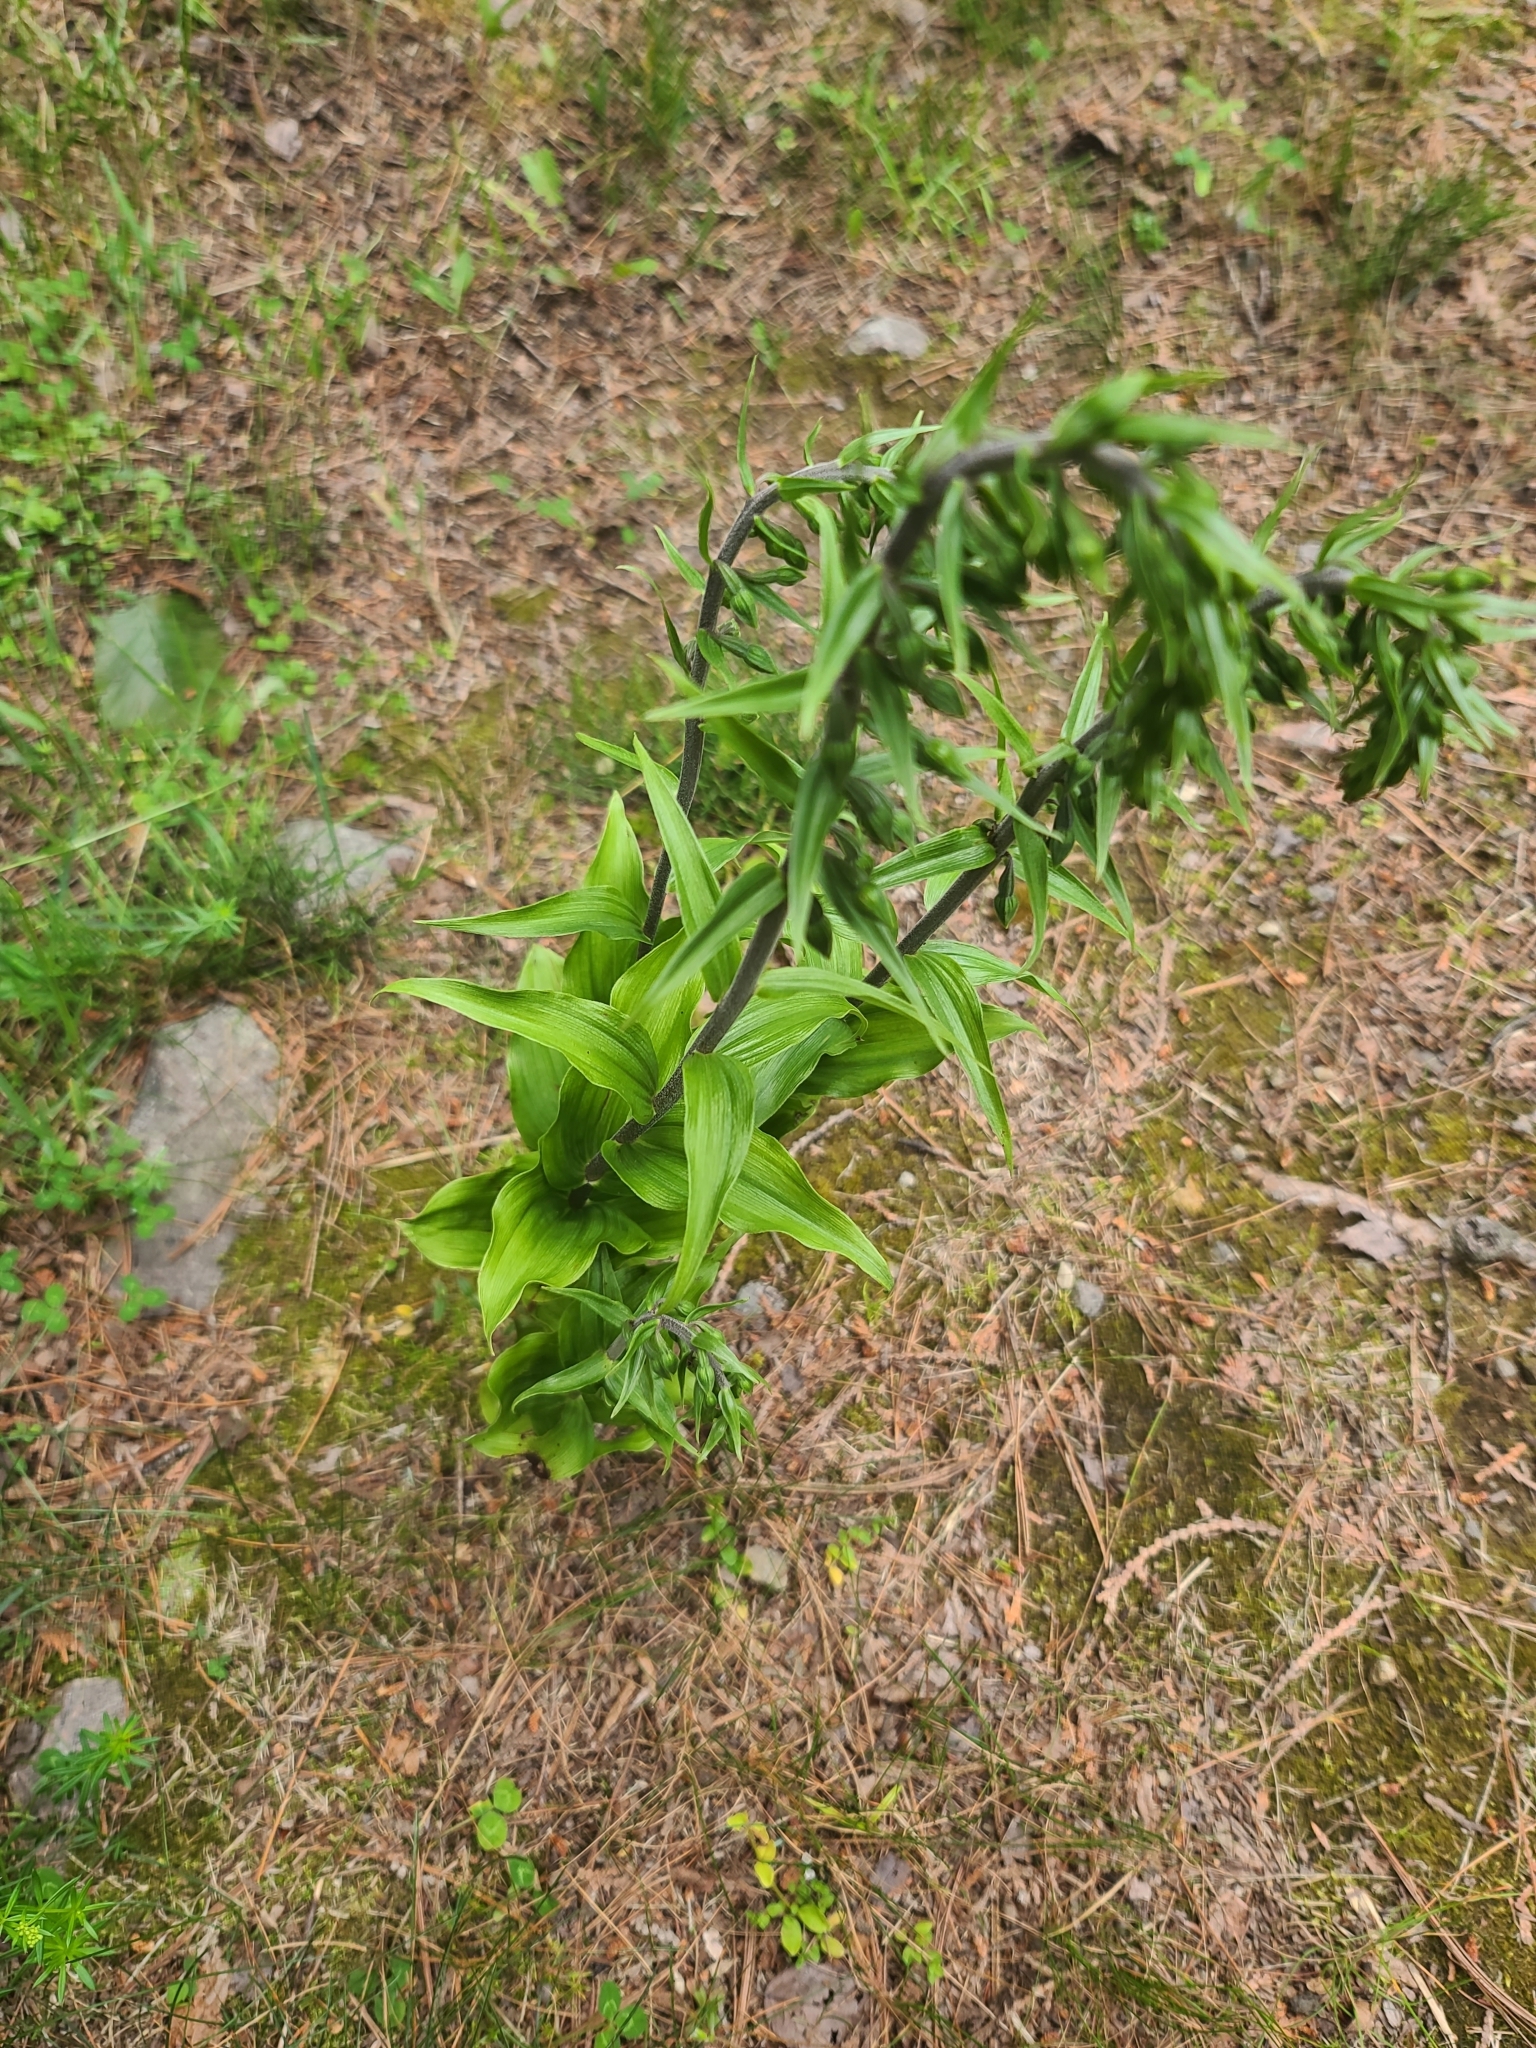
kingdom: Plantae
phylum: Tracheophyta
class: Liliopsida
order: Asparagales
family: Orchidaceae
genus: Epipactis
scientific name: Epipactis helleborine
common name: Broad-leaved helleborine
